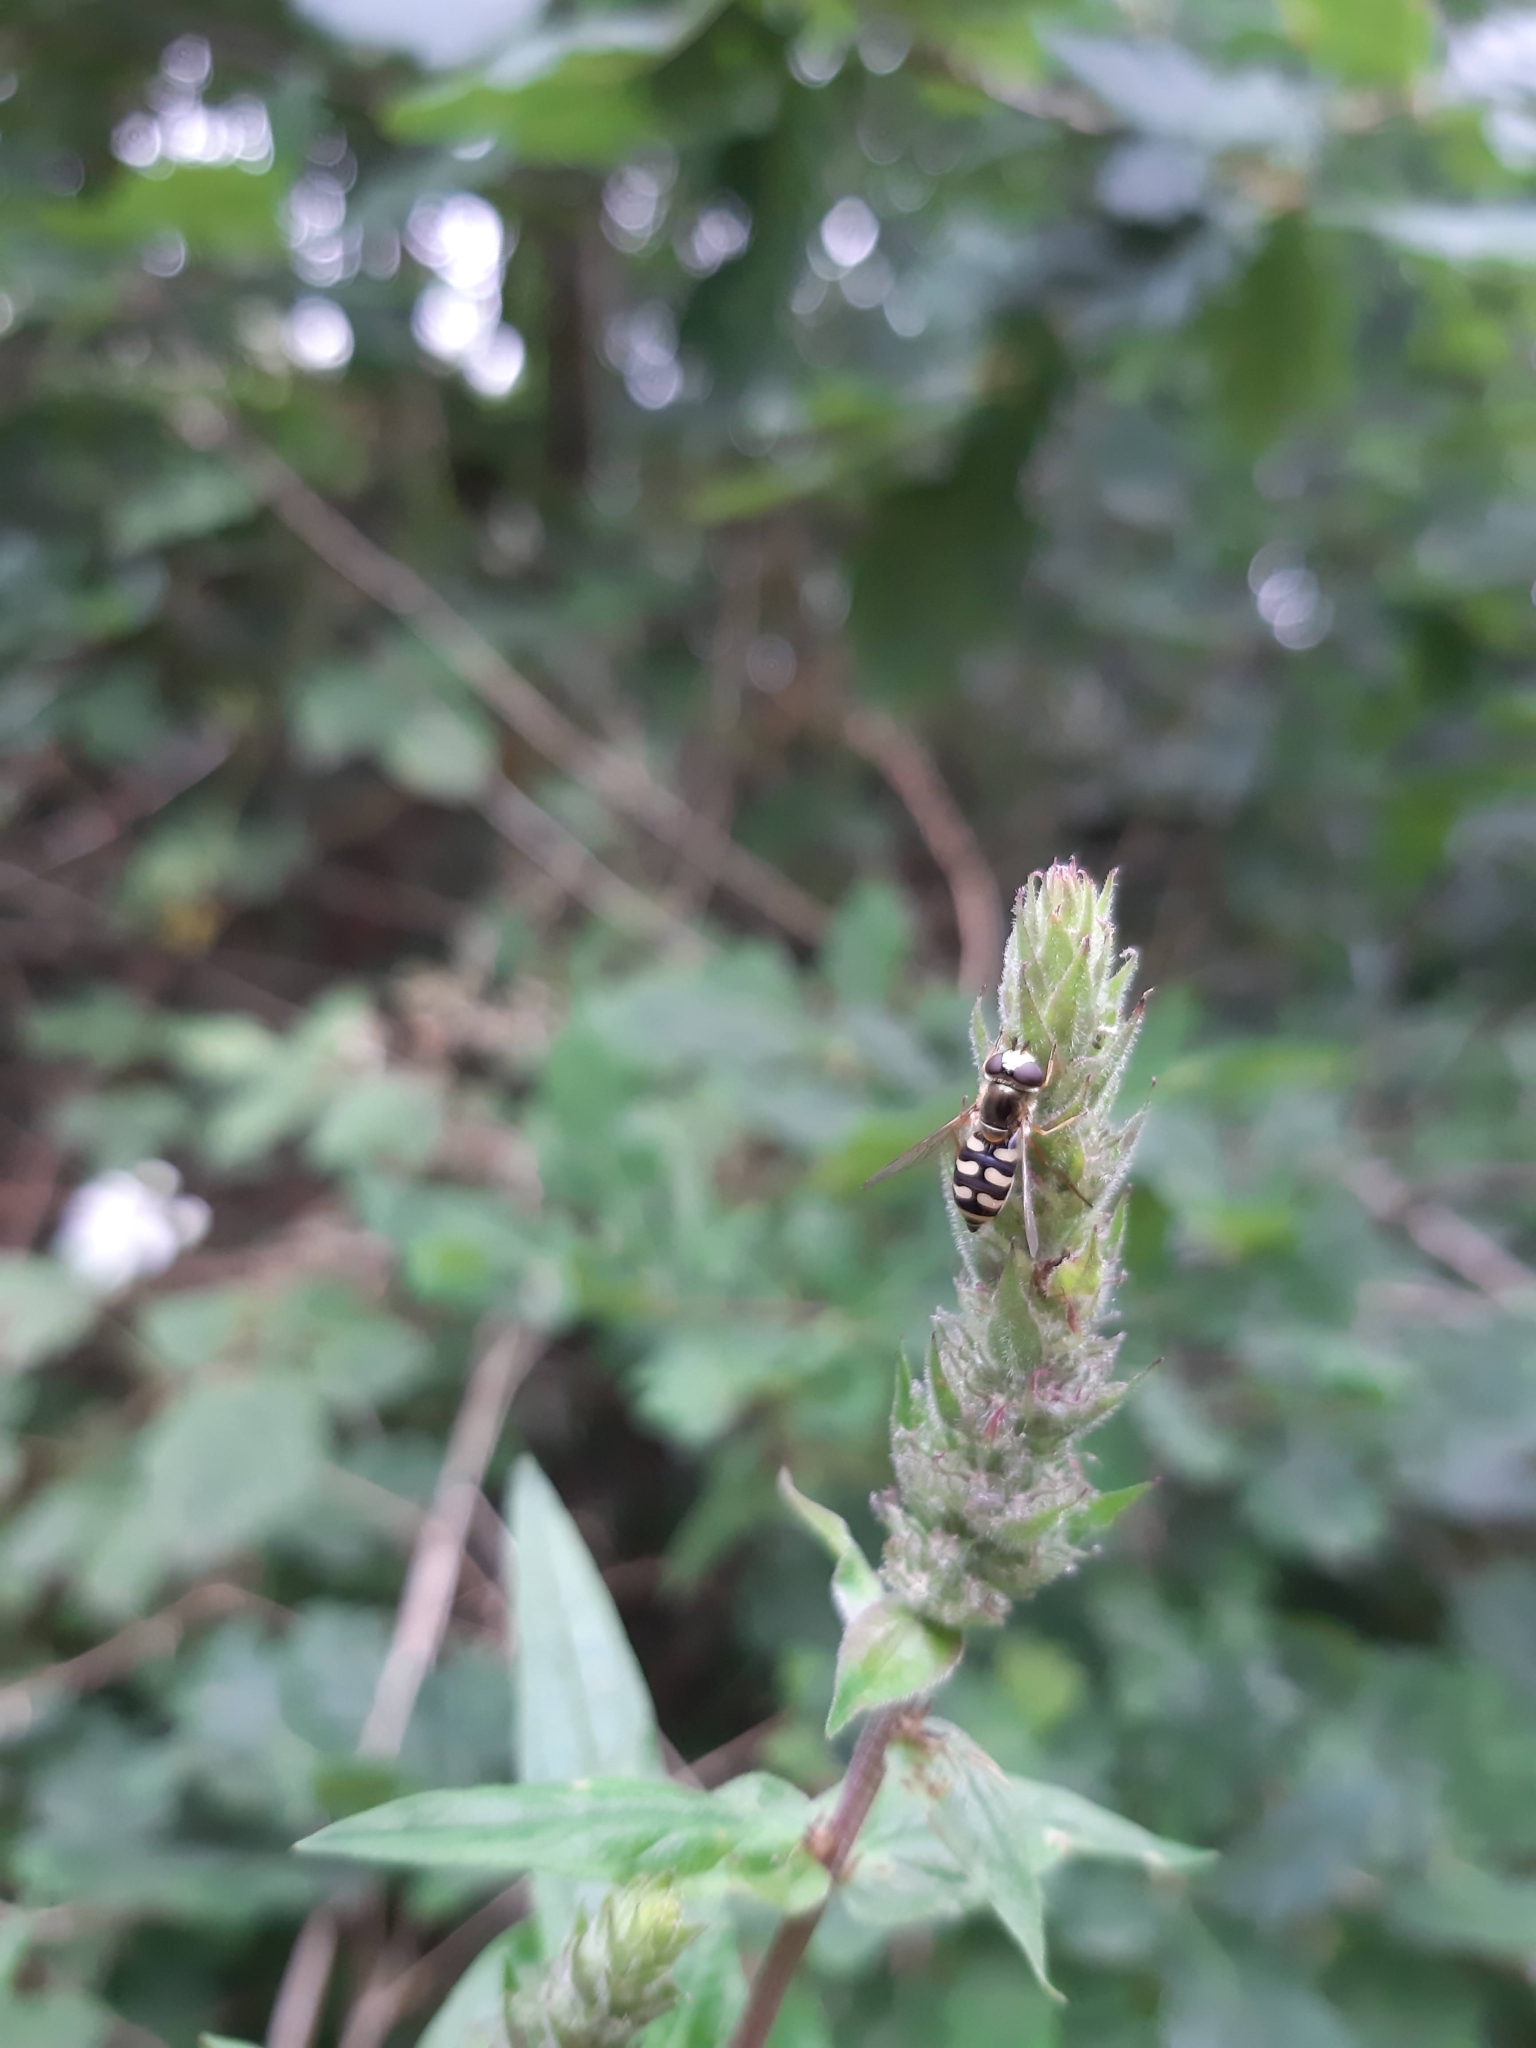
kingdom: Animalia
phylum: Arthropoda
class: Insecta
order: Diptera
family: Syrphidae
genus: Eupeodes
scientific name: Eupeodes corollae
